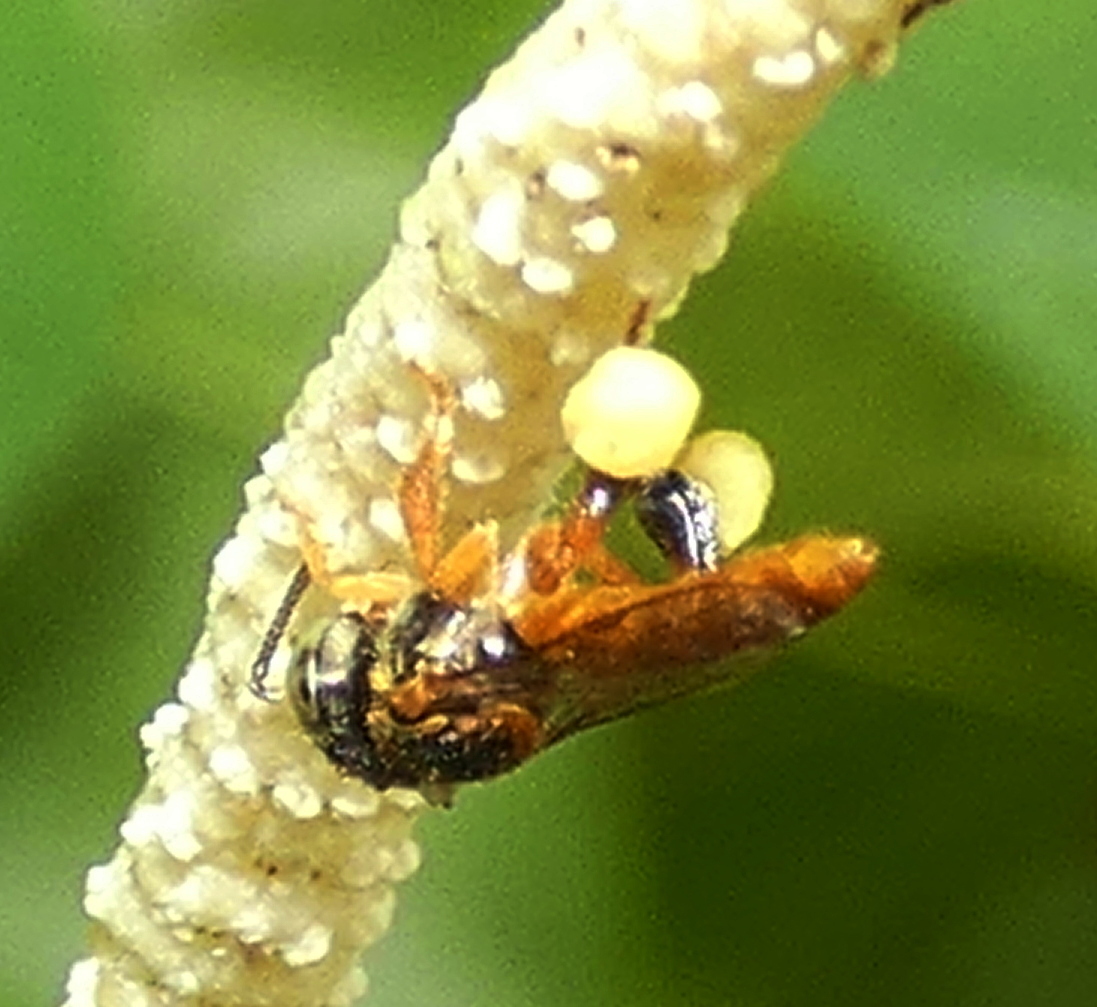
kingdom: Animalia
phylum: Arthropoda
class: Insecta
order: Hymenoptera
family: Apidae
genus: Tetragonisca
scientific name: Tetragonisca angustula
